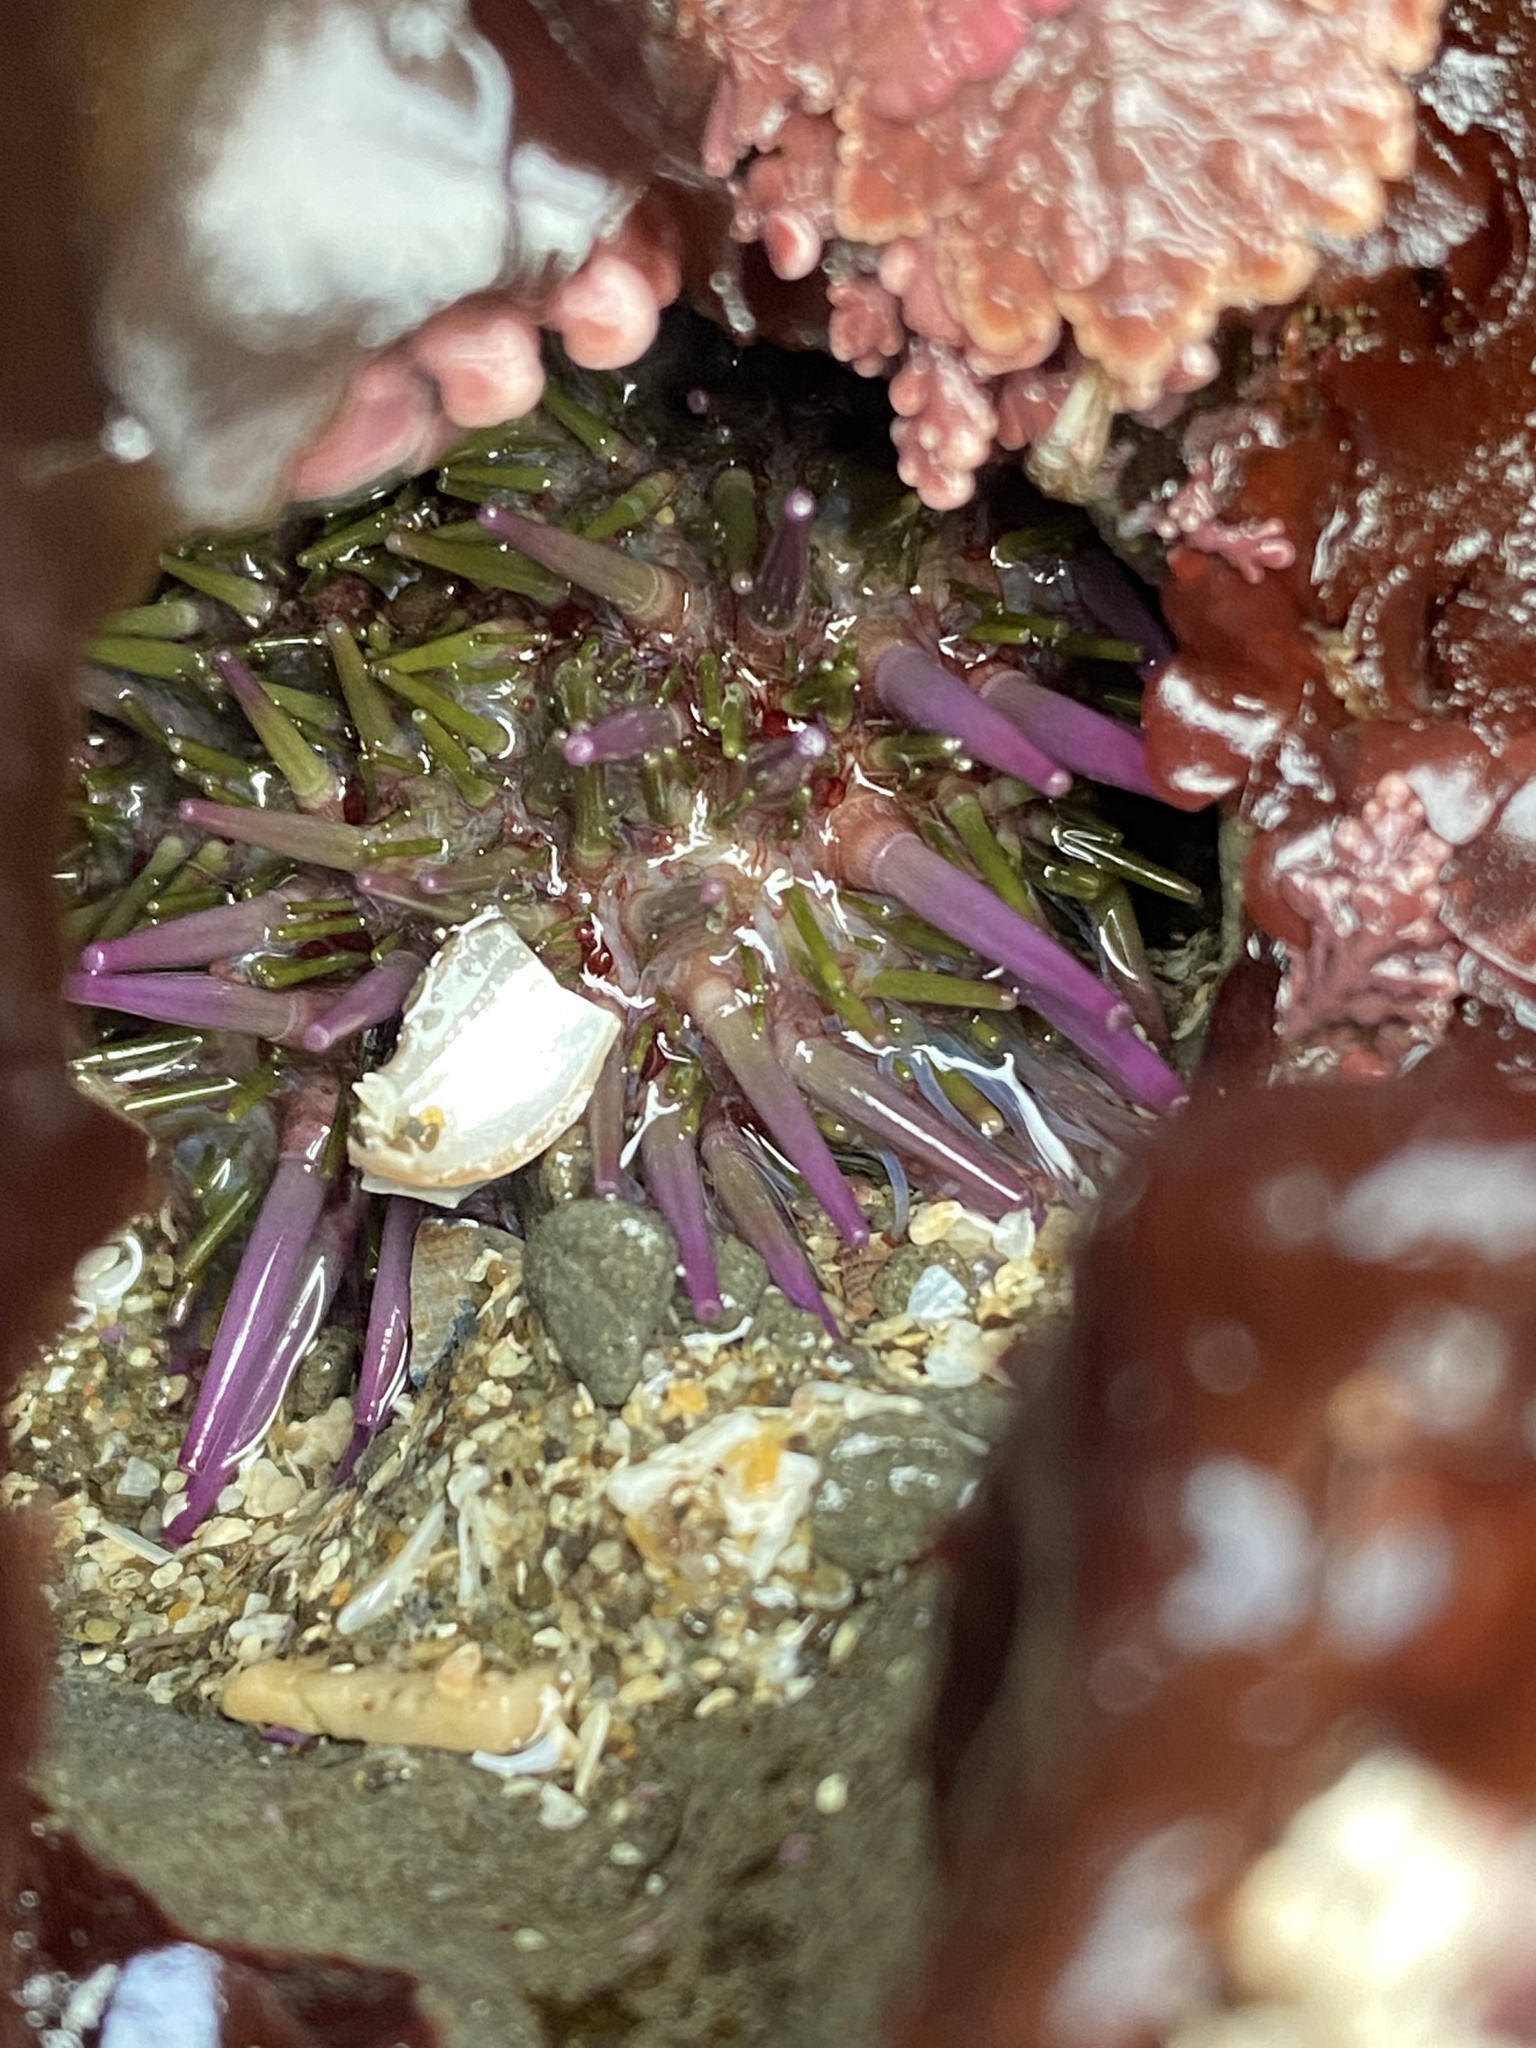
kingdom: Animalia
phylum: Echinodermata
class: Echinoidea
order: Camarodonta
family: Strongylocentrotidae
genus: Strongylocentrotus
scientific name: Strongylocentrotus purpuratus
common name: Purple sea urchin
